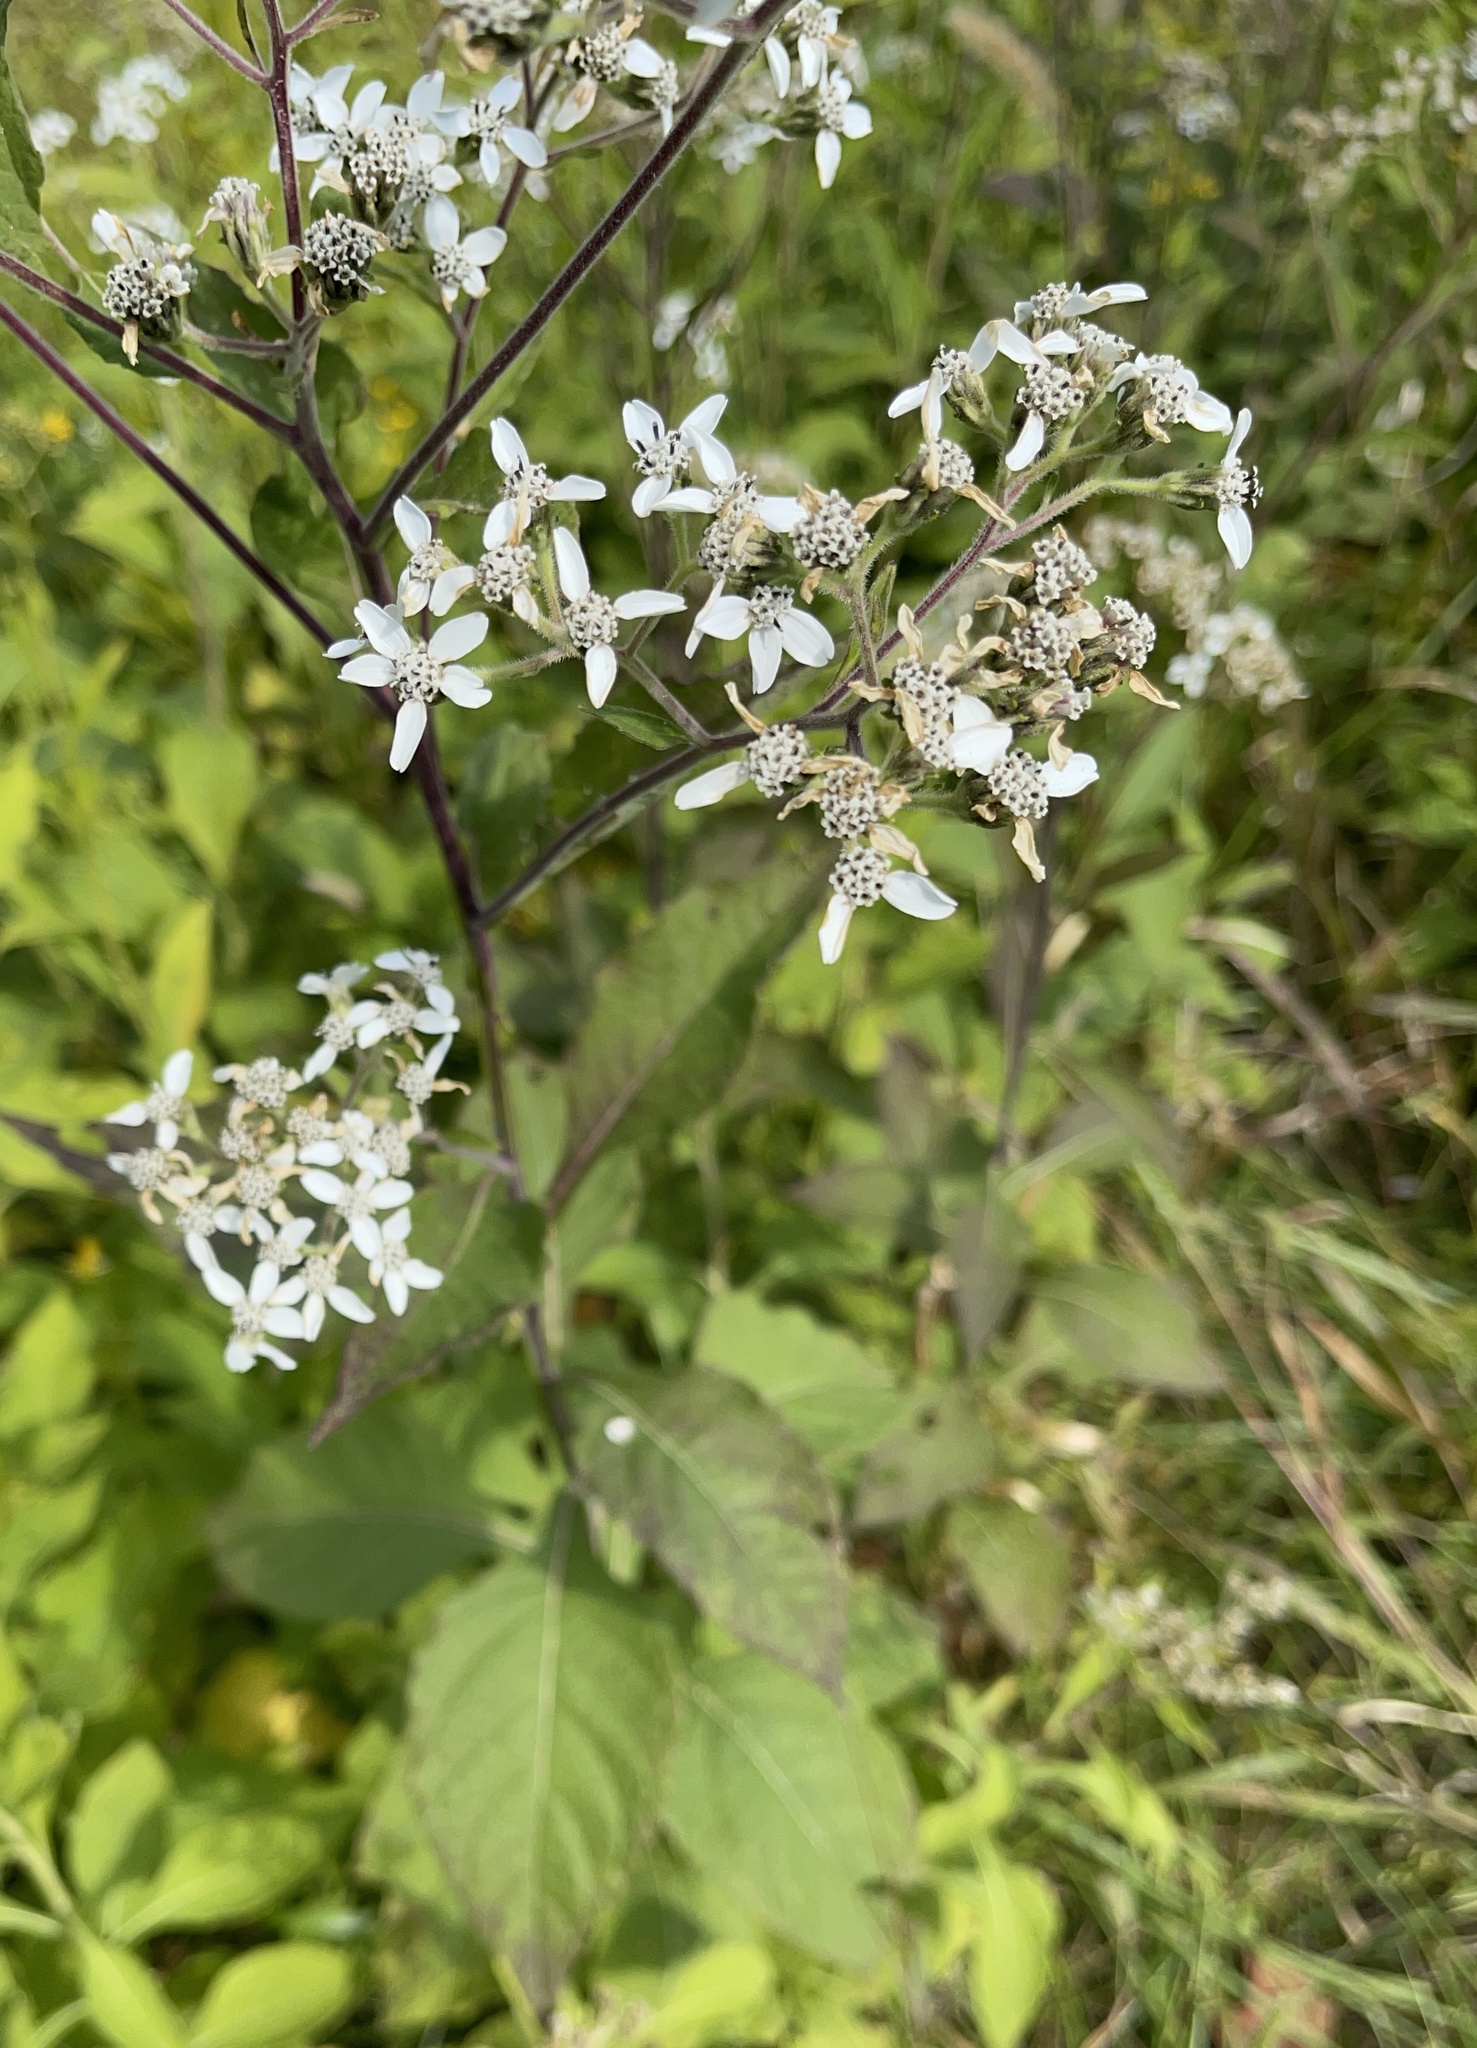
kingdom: Plantae
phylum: Tracheophyta
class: Magnoliopsida
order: Asterales
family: Asteraceae
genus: Verbesina
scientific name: Verbesina virginica
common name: Frostweed
